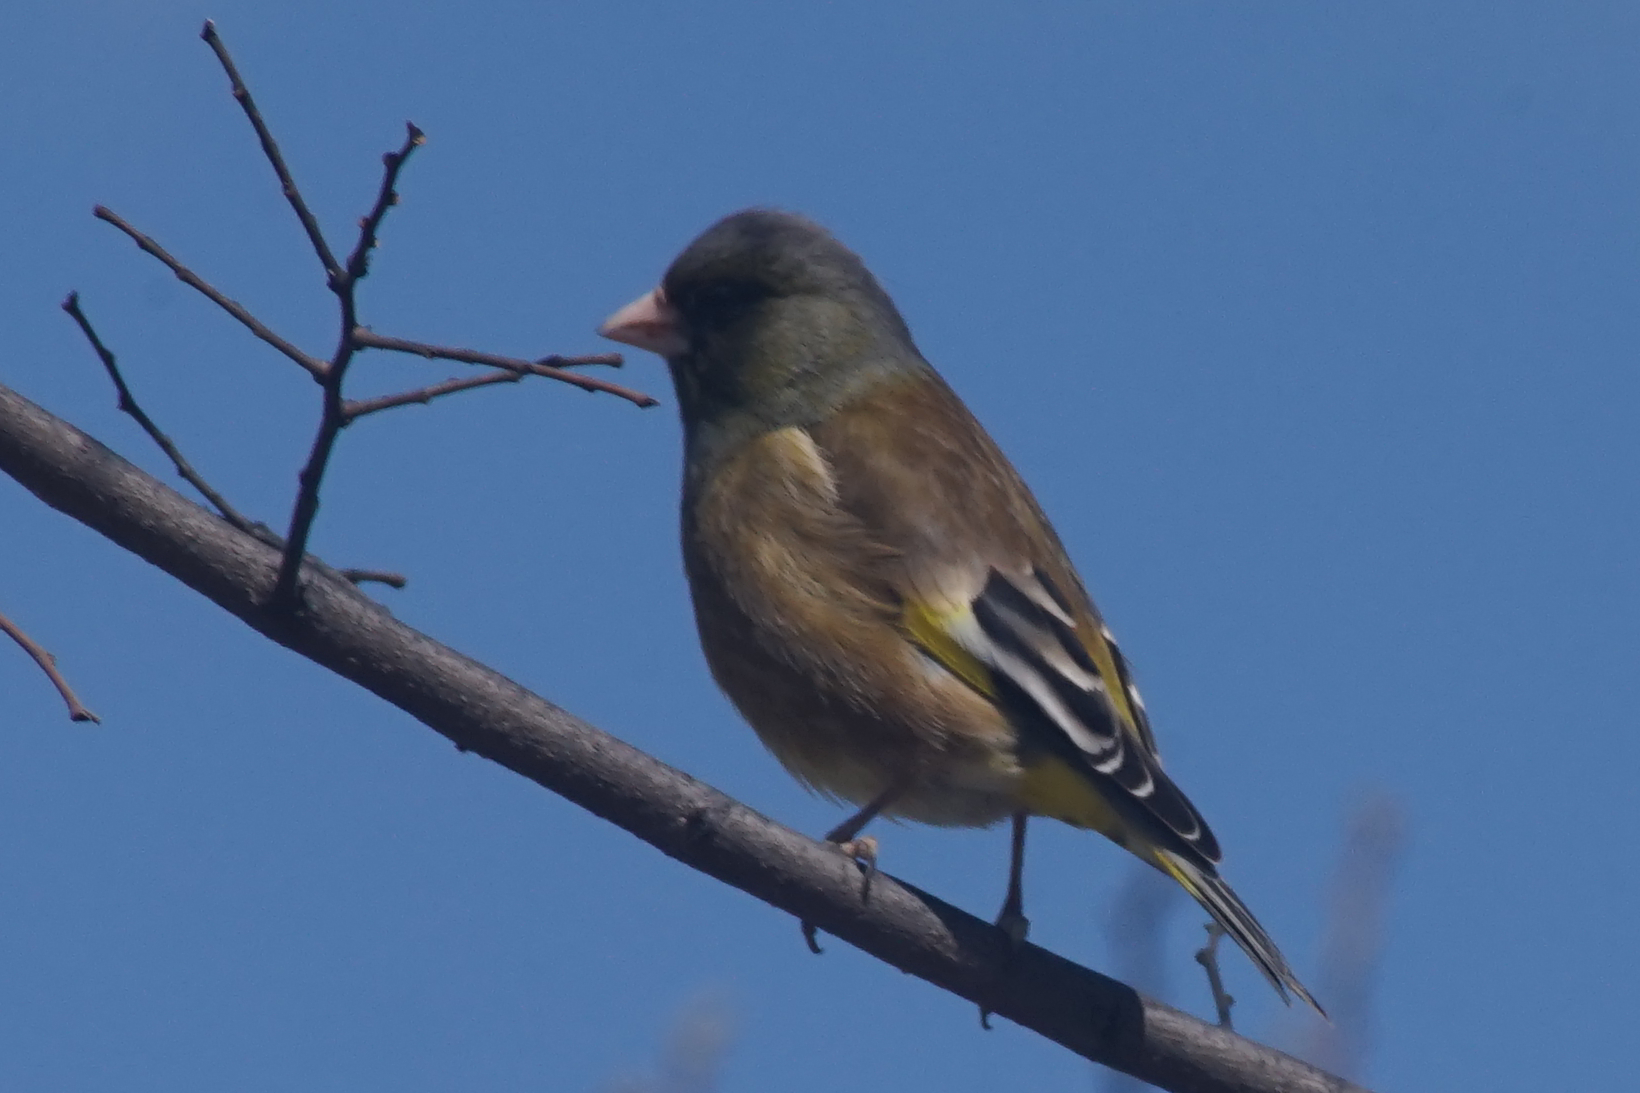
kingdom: Plantae
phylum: Tracheophyta
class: Liliopsida
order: Poales
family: Poaceae
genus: Chloris
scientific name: Chloris sinica
